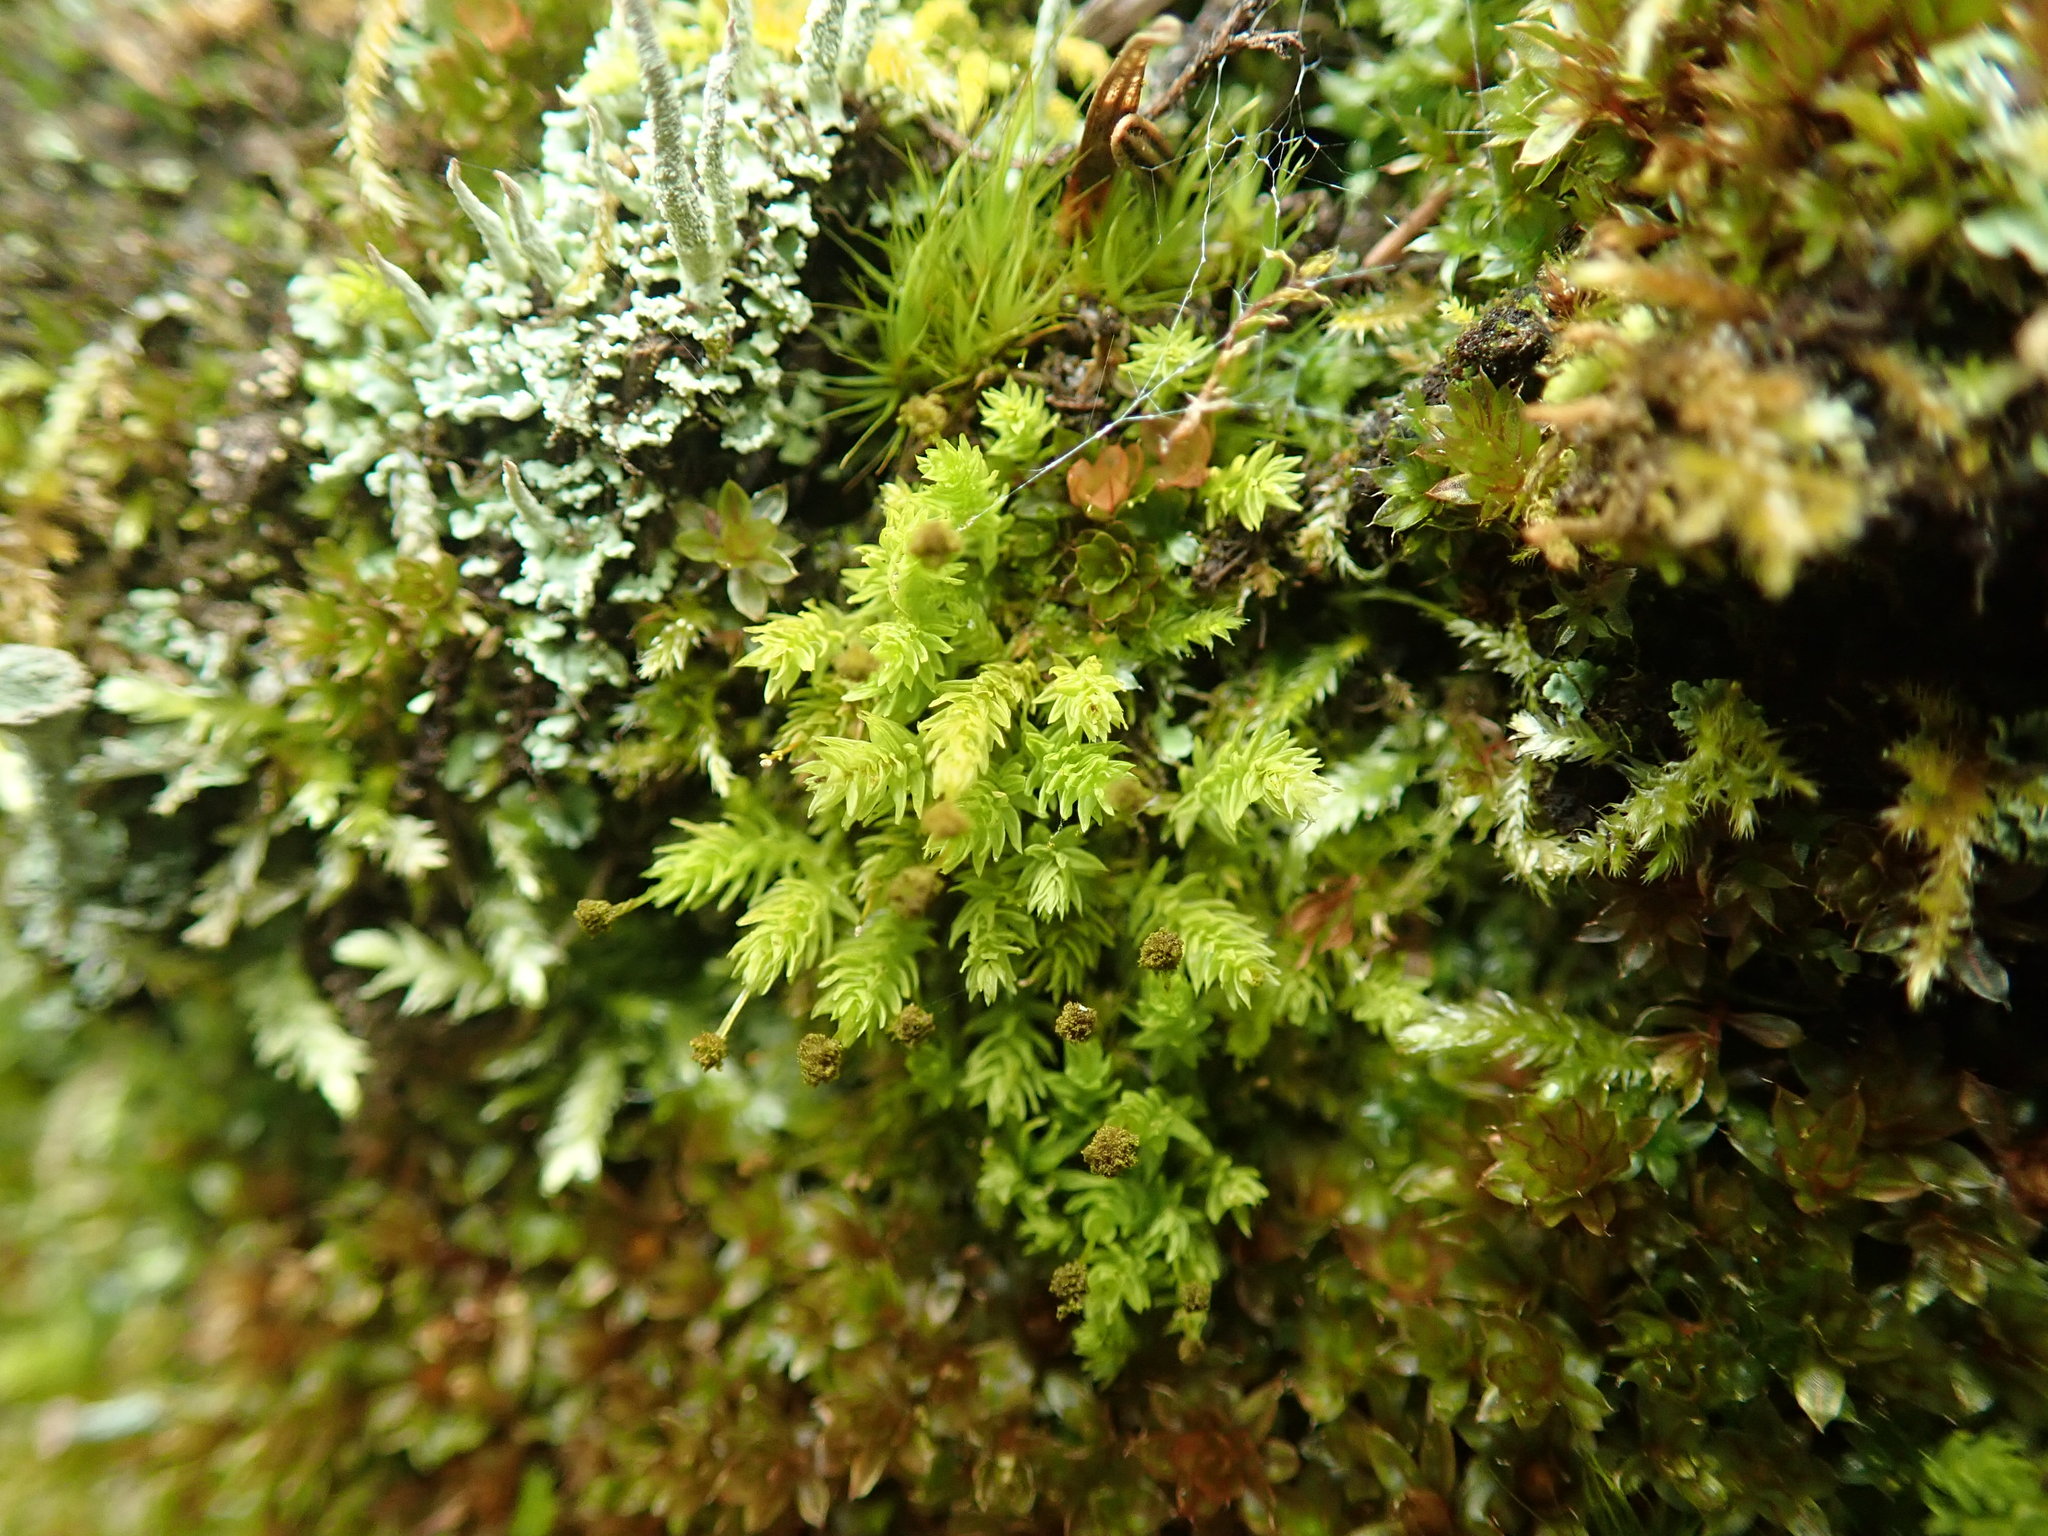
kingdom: Plantae
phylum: Bryophyta
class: Bryopsida
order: Aulacomniales
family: Aulacomniaceae
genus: Aulacomnium
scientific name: Aulacomnium androgynum
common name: Little groove moss
